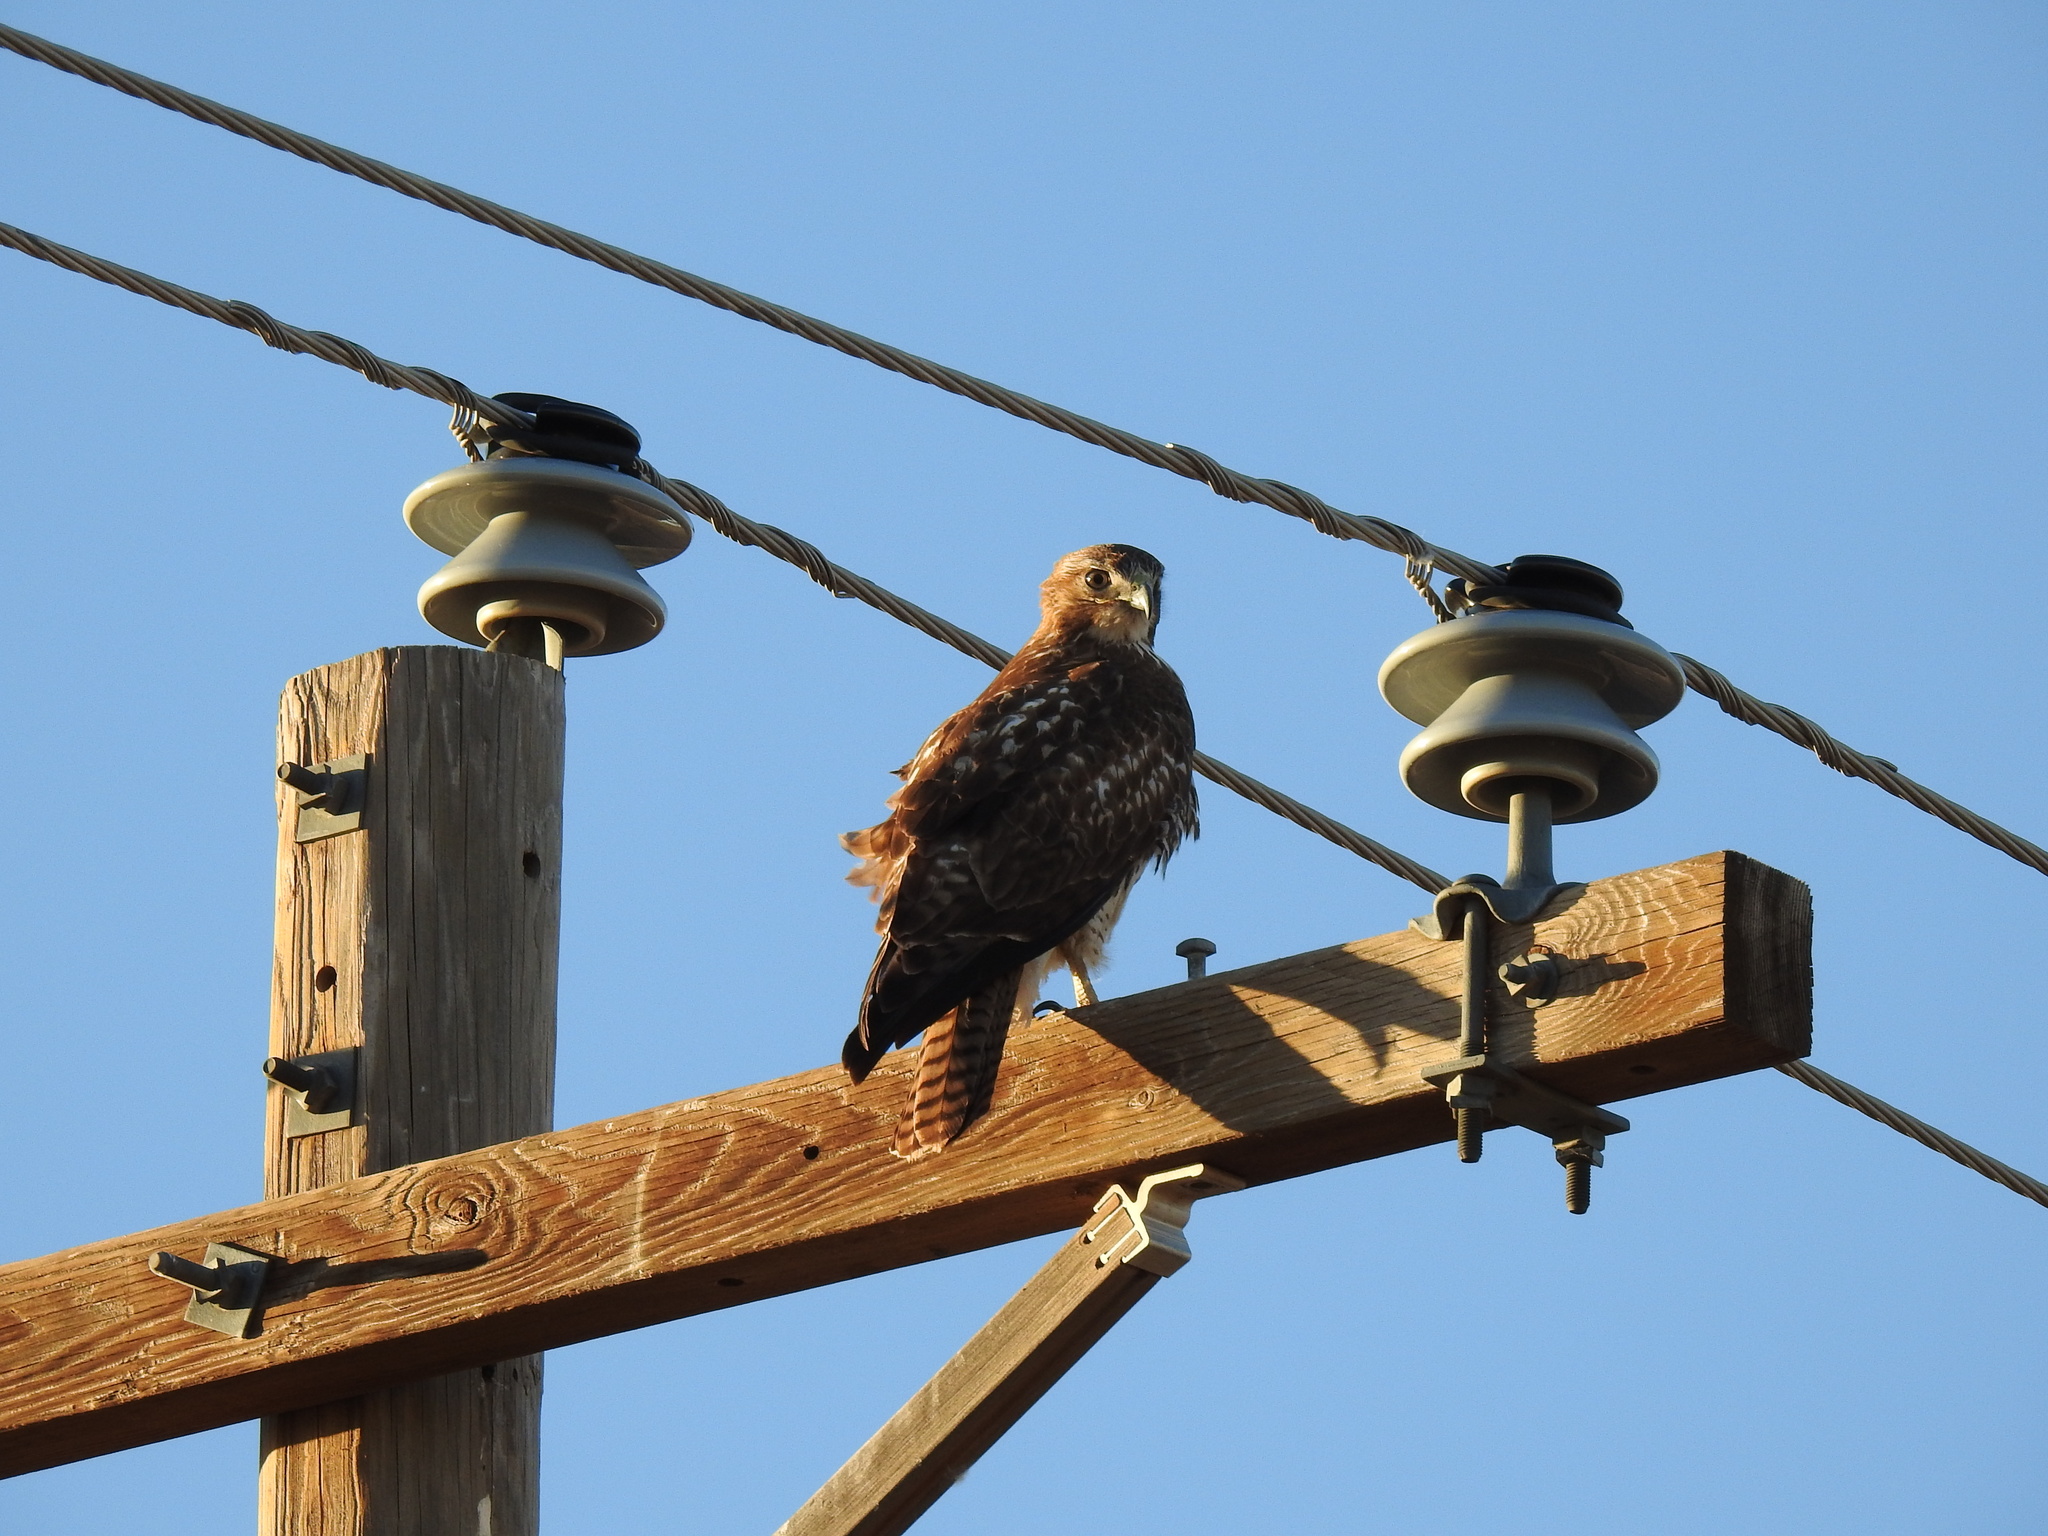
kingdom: Animalia
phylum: Chordata
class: Aves
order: Accipitriformes
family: Accipitridae
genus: Buteo
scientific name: Buteo jamaicensis
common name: Red-tailed hawk
